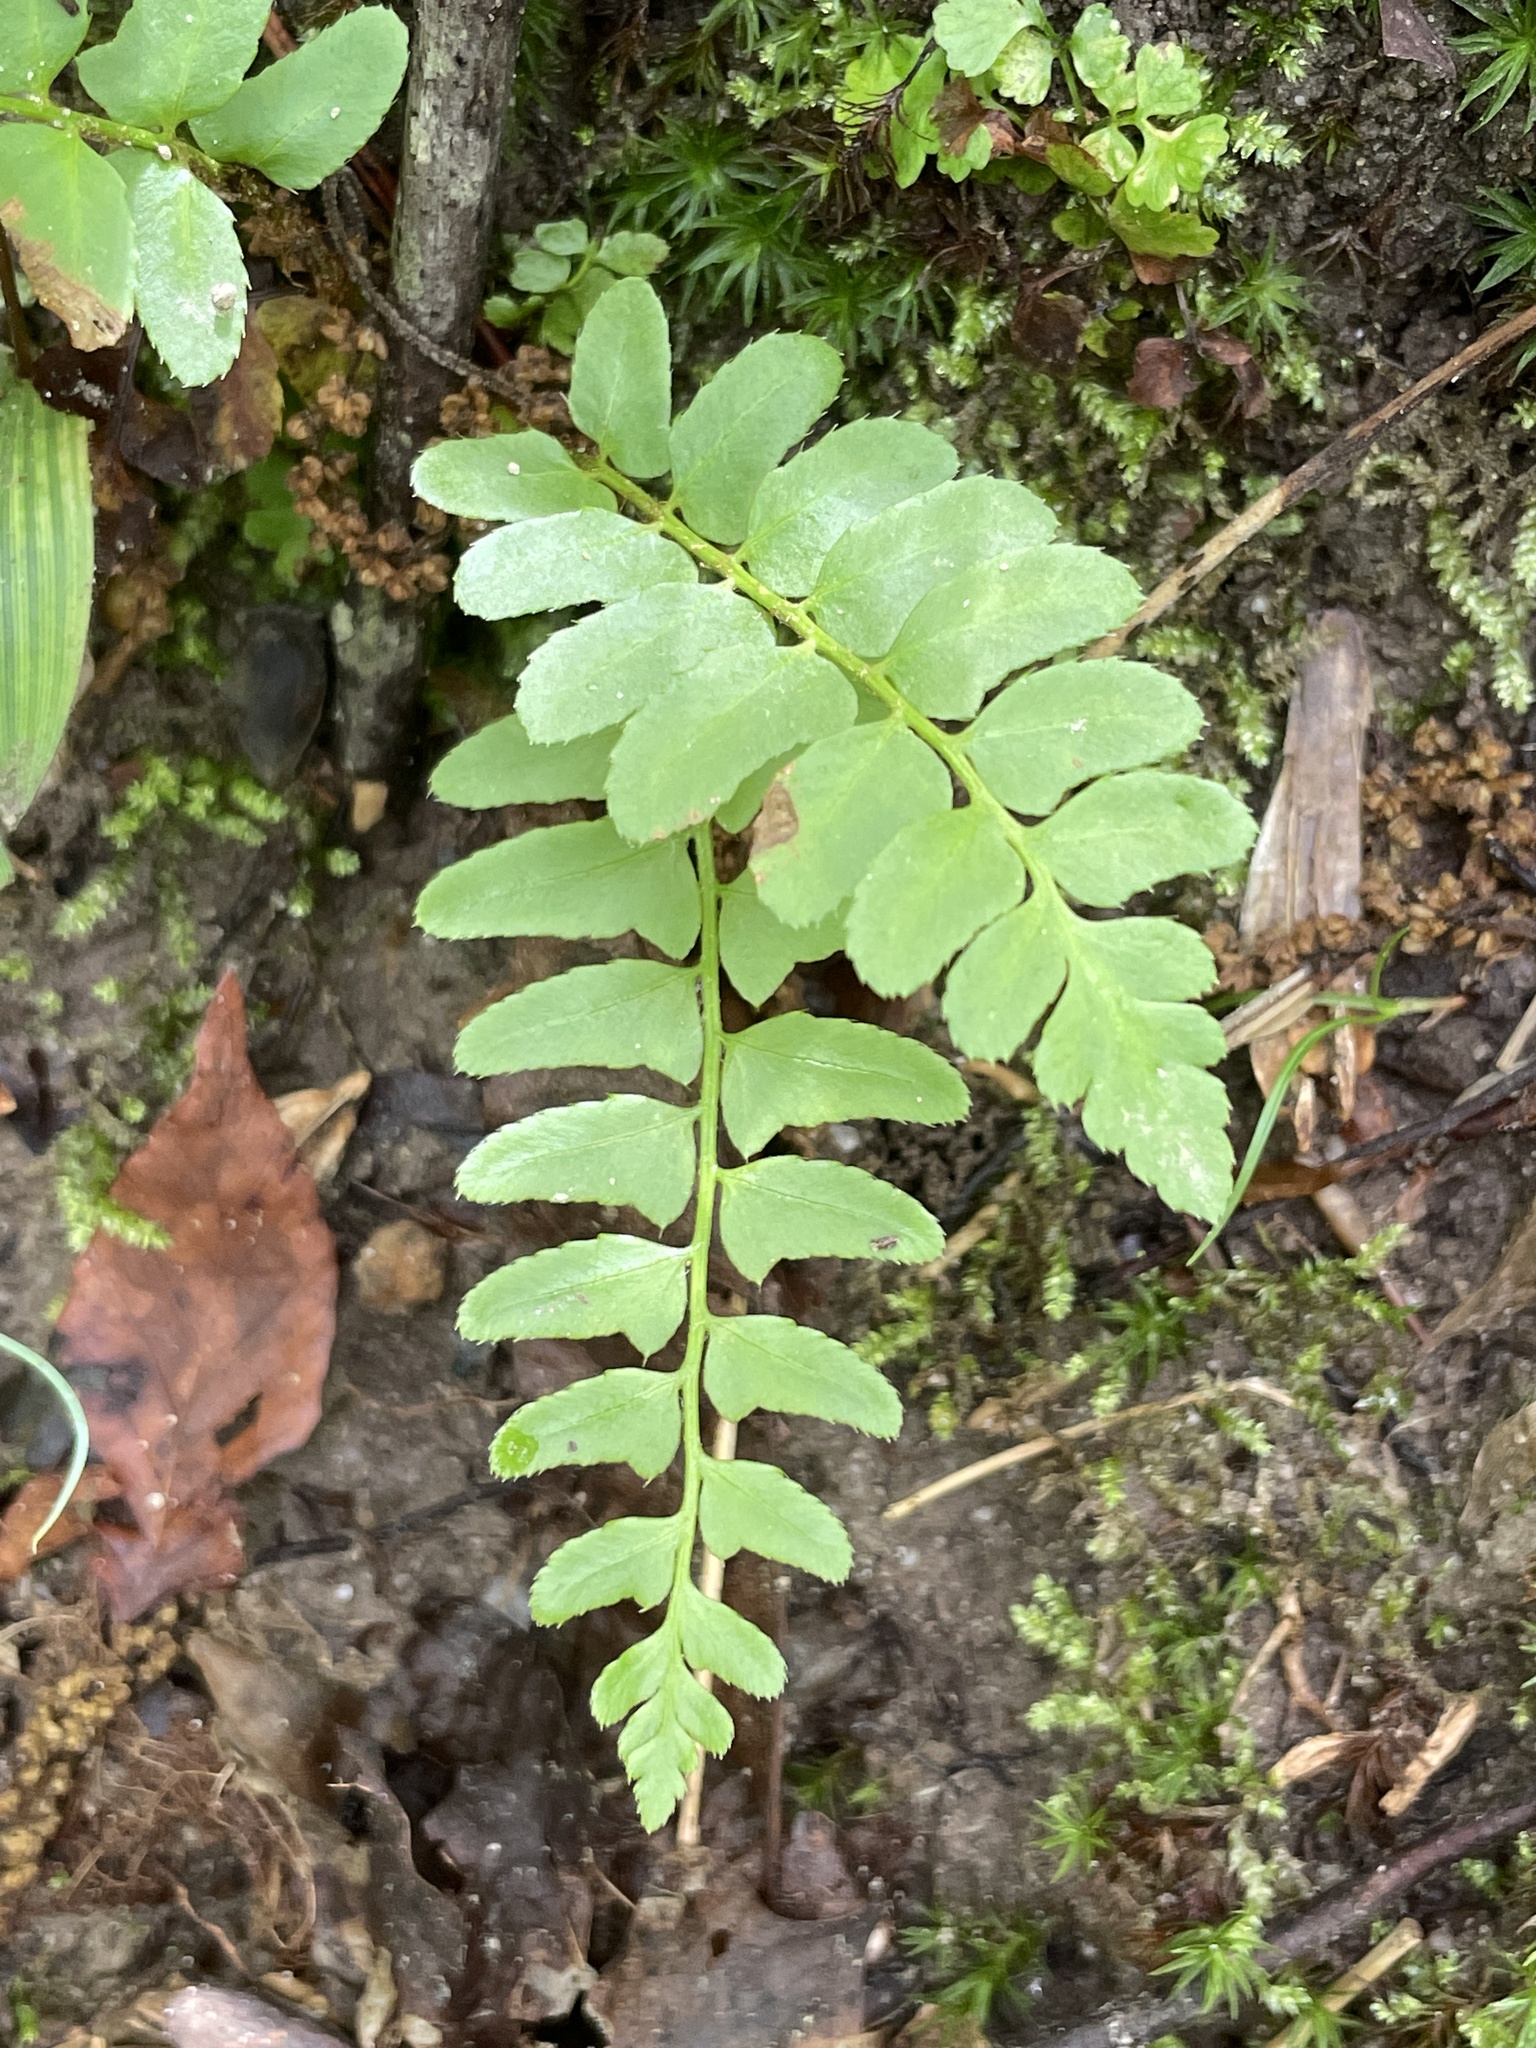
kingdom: Plantae
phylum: Tracheophyta
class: Polypodiopsida
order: Polypodiales
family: Dryopteridaceae
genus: Polystichum
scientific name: Polystichum acrostichoides
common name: Christmas fern
